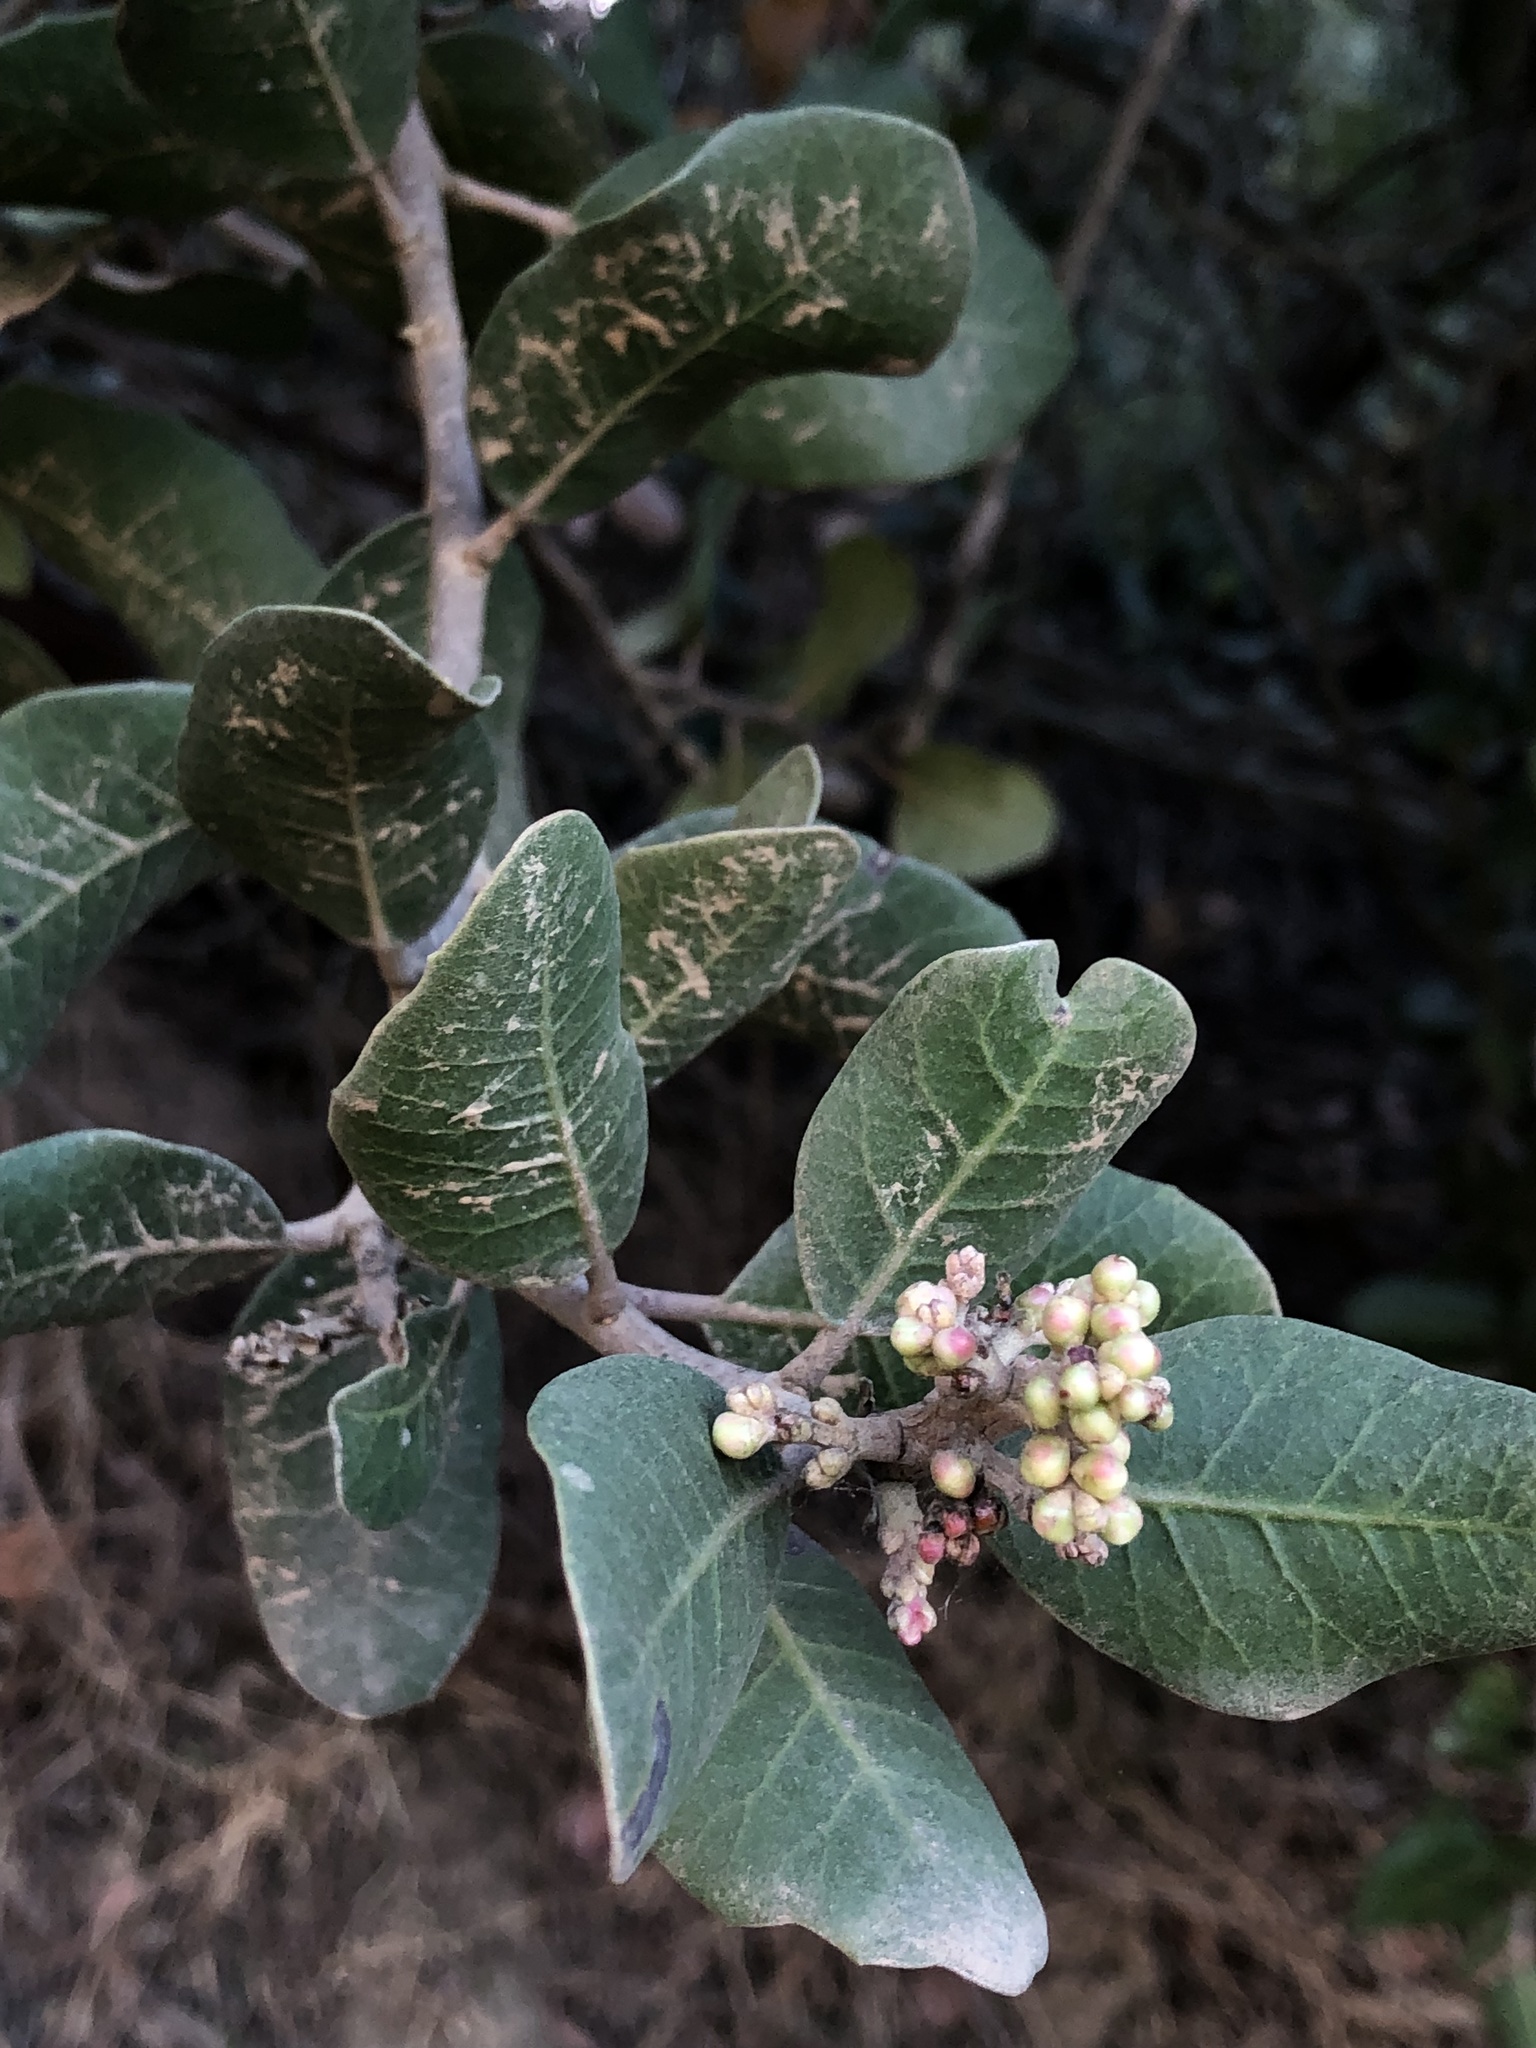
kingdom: Plantae
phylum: Tracheophyta
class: Magnoliopsida
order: Sapindales
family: Anacardiaceae
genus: Rhus
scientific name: Rhus integrifolia
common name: Lemonade sumac
